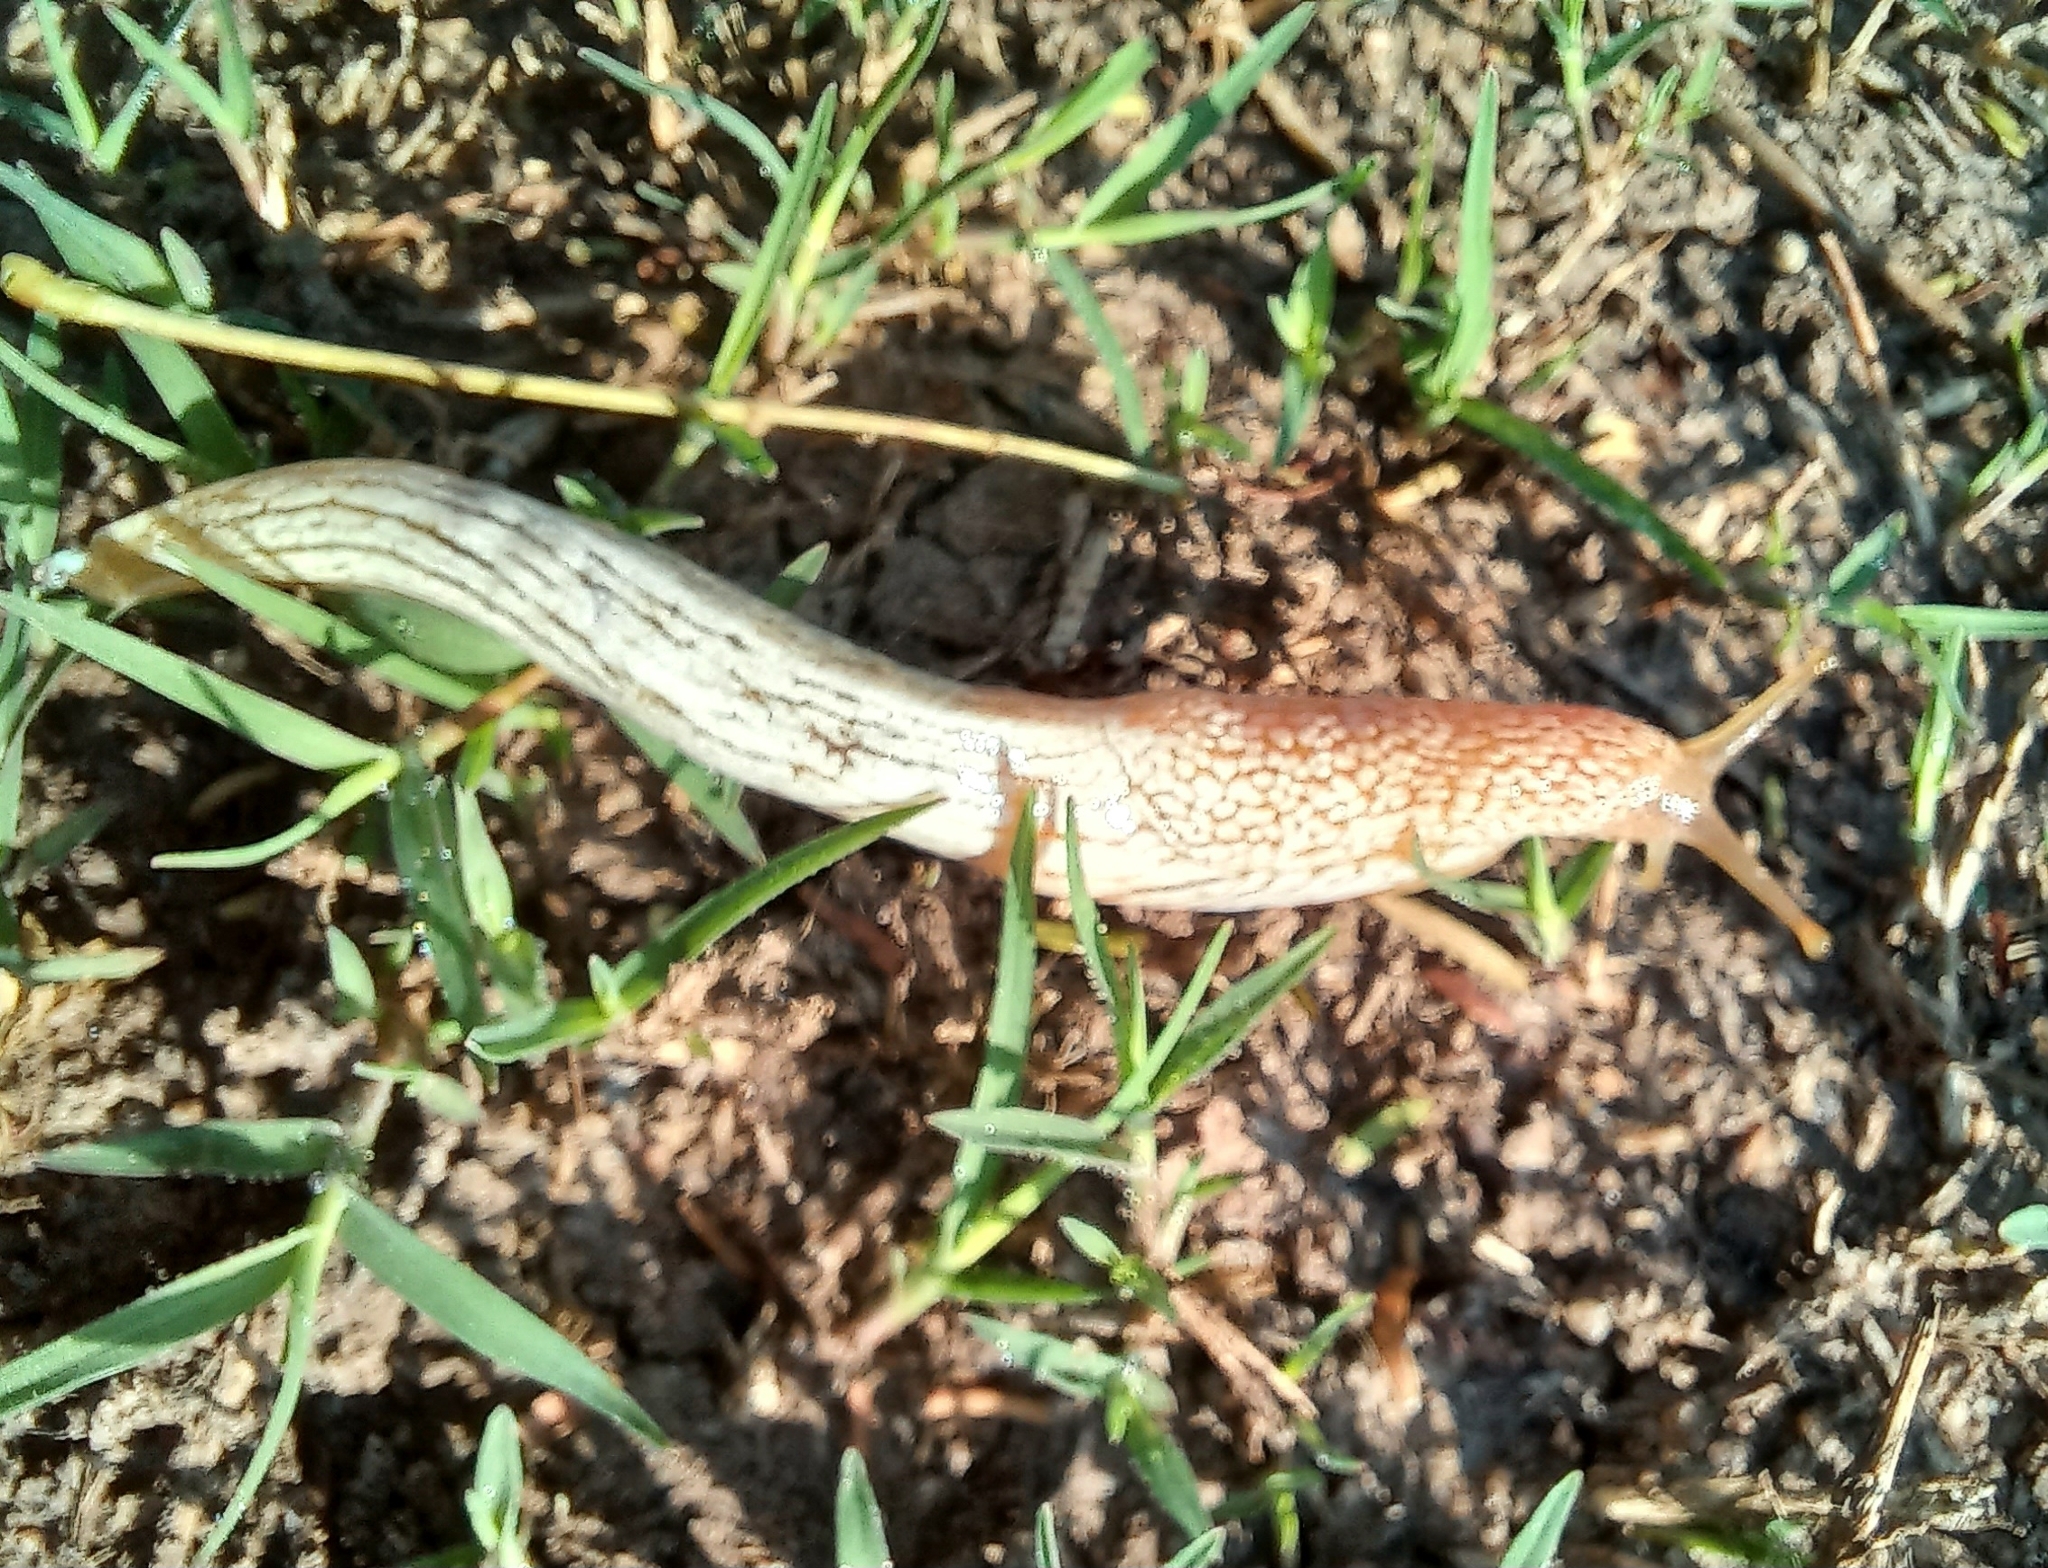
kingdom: Animalia
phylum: Mollusca
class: Gastropoda
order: Stylommatophora
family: Urocyclidae
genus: Elisolimax
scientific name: Elisolimax flavescens
